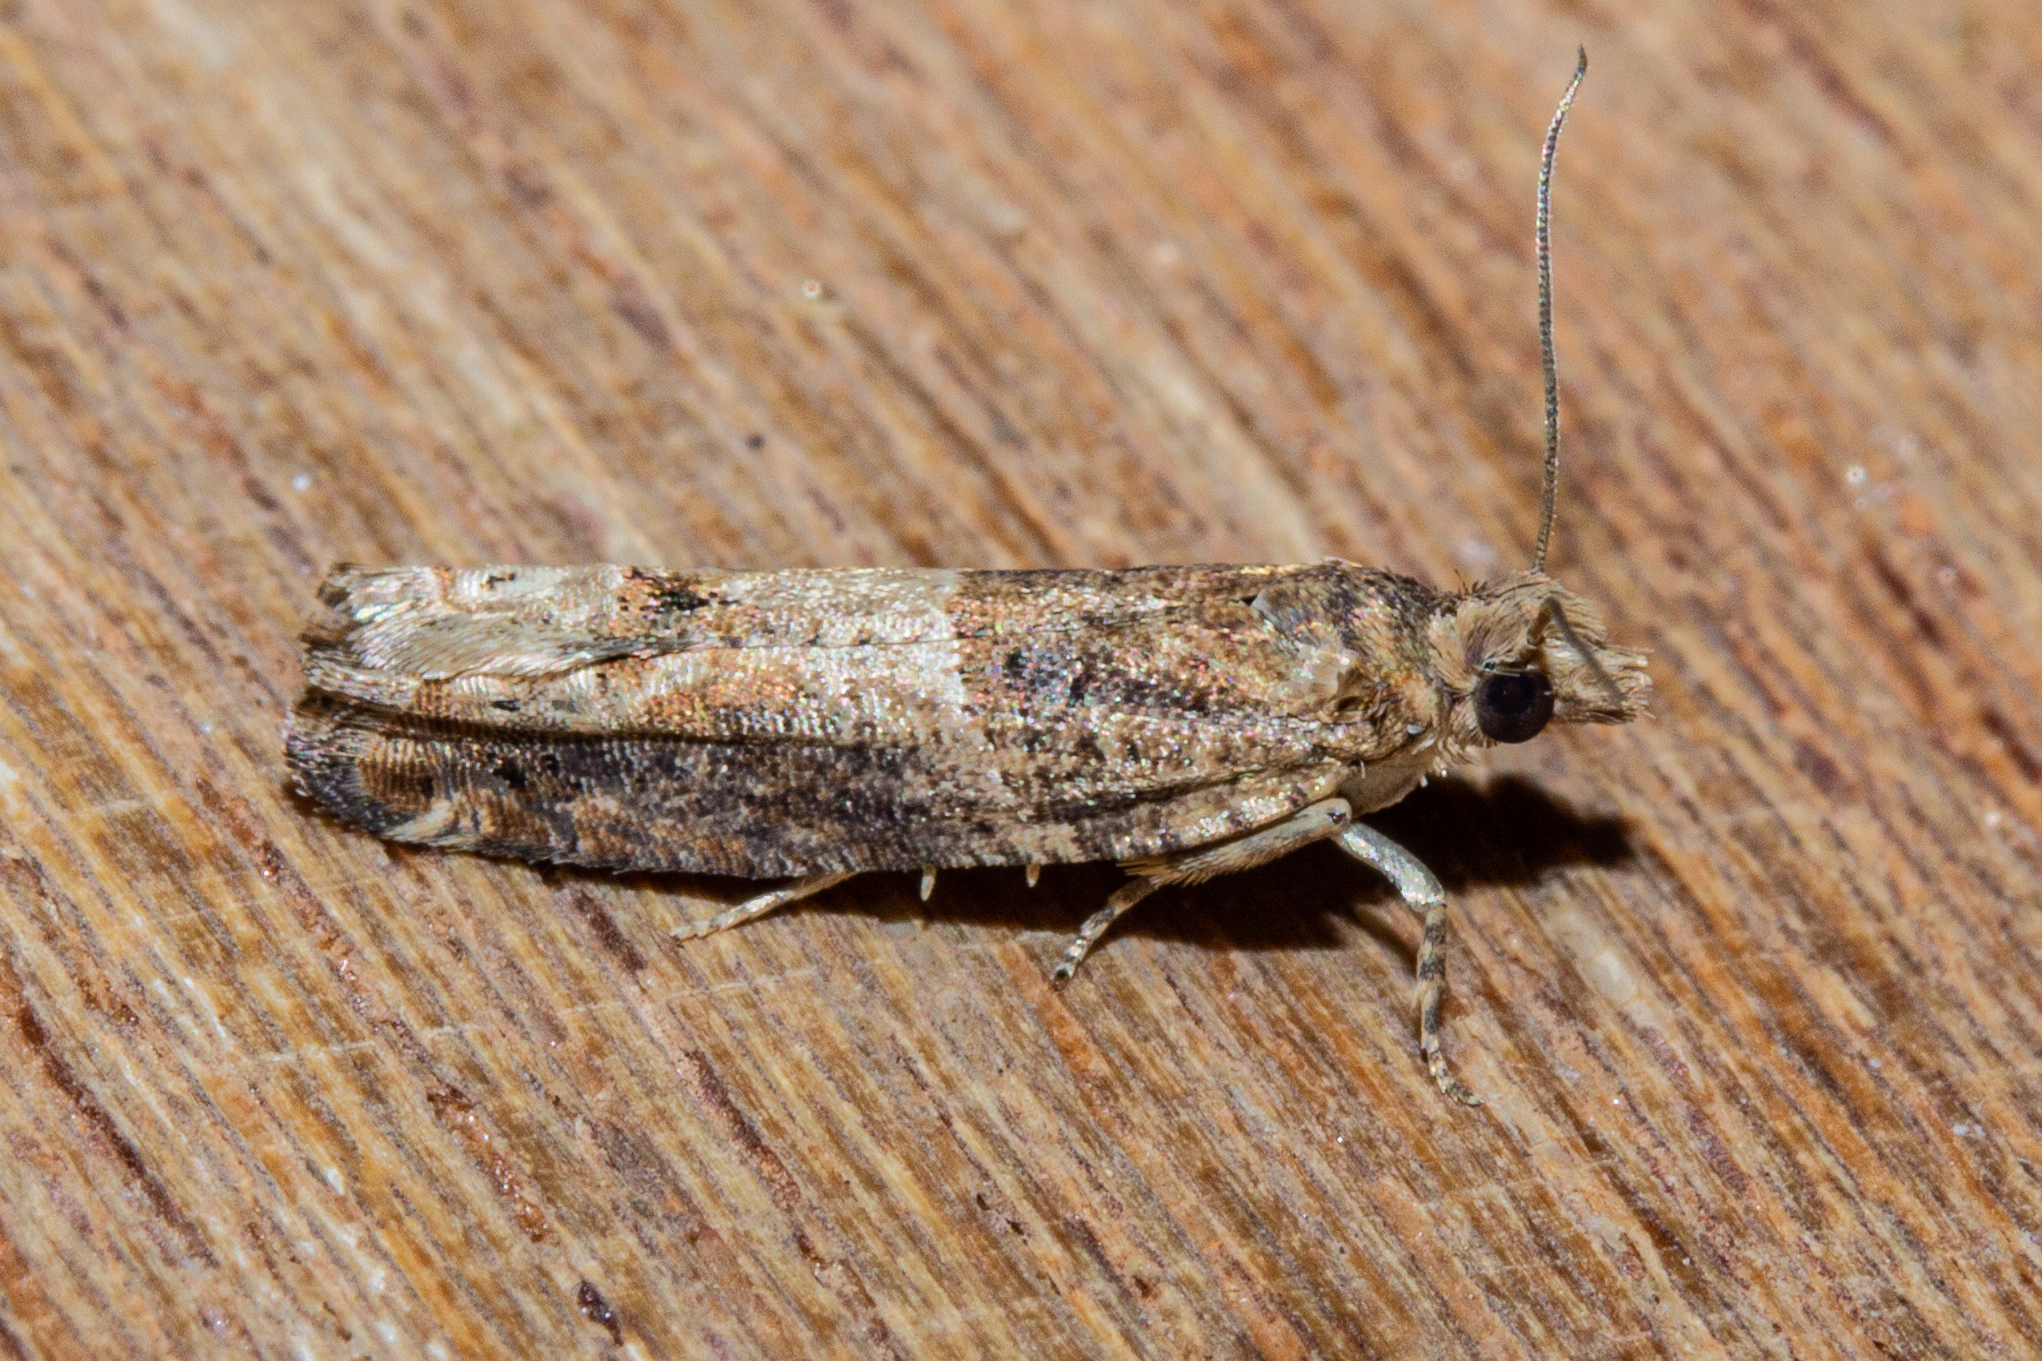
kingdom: Animalia
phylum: Arthropoda
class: Insecta
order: Lepidoptera
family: Tortricidae
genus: Crocidosema
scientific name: Crocidosema plebejana
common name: Southern bell
